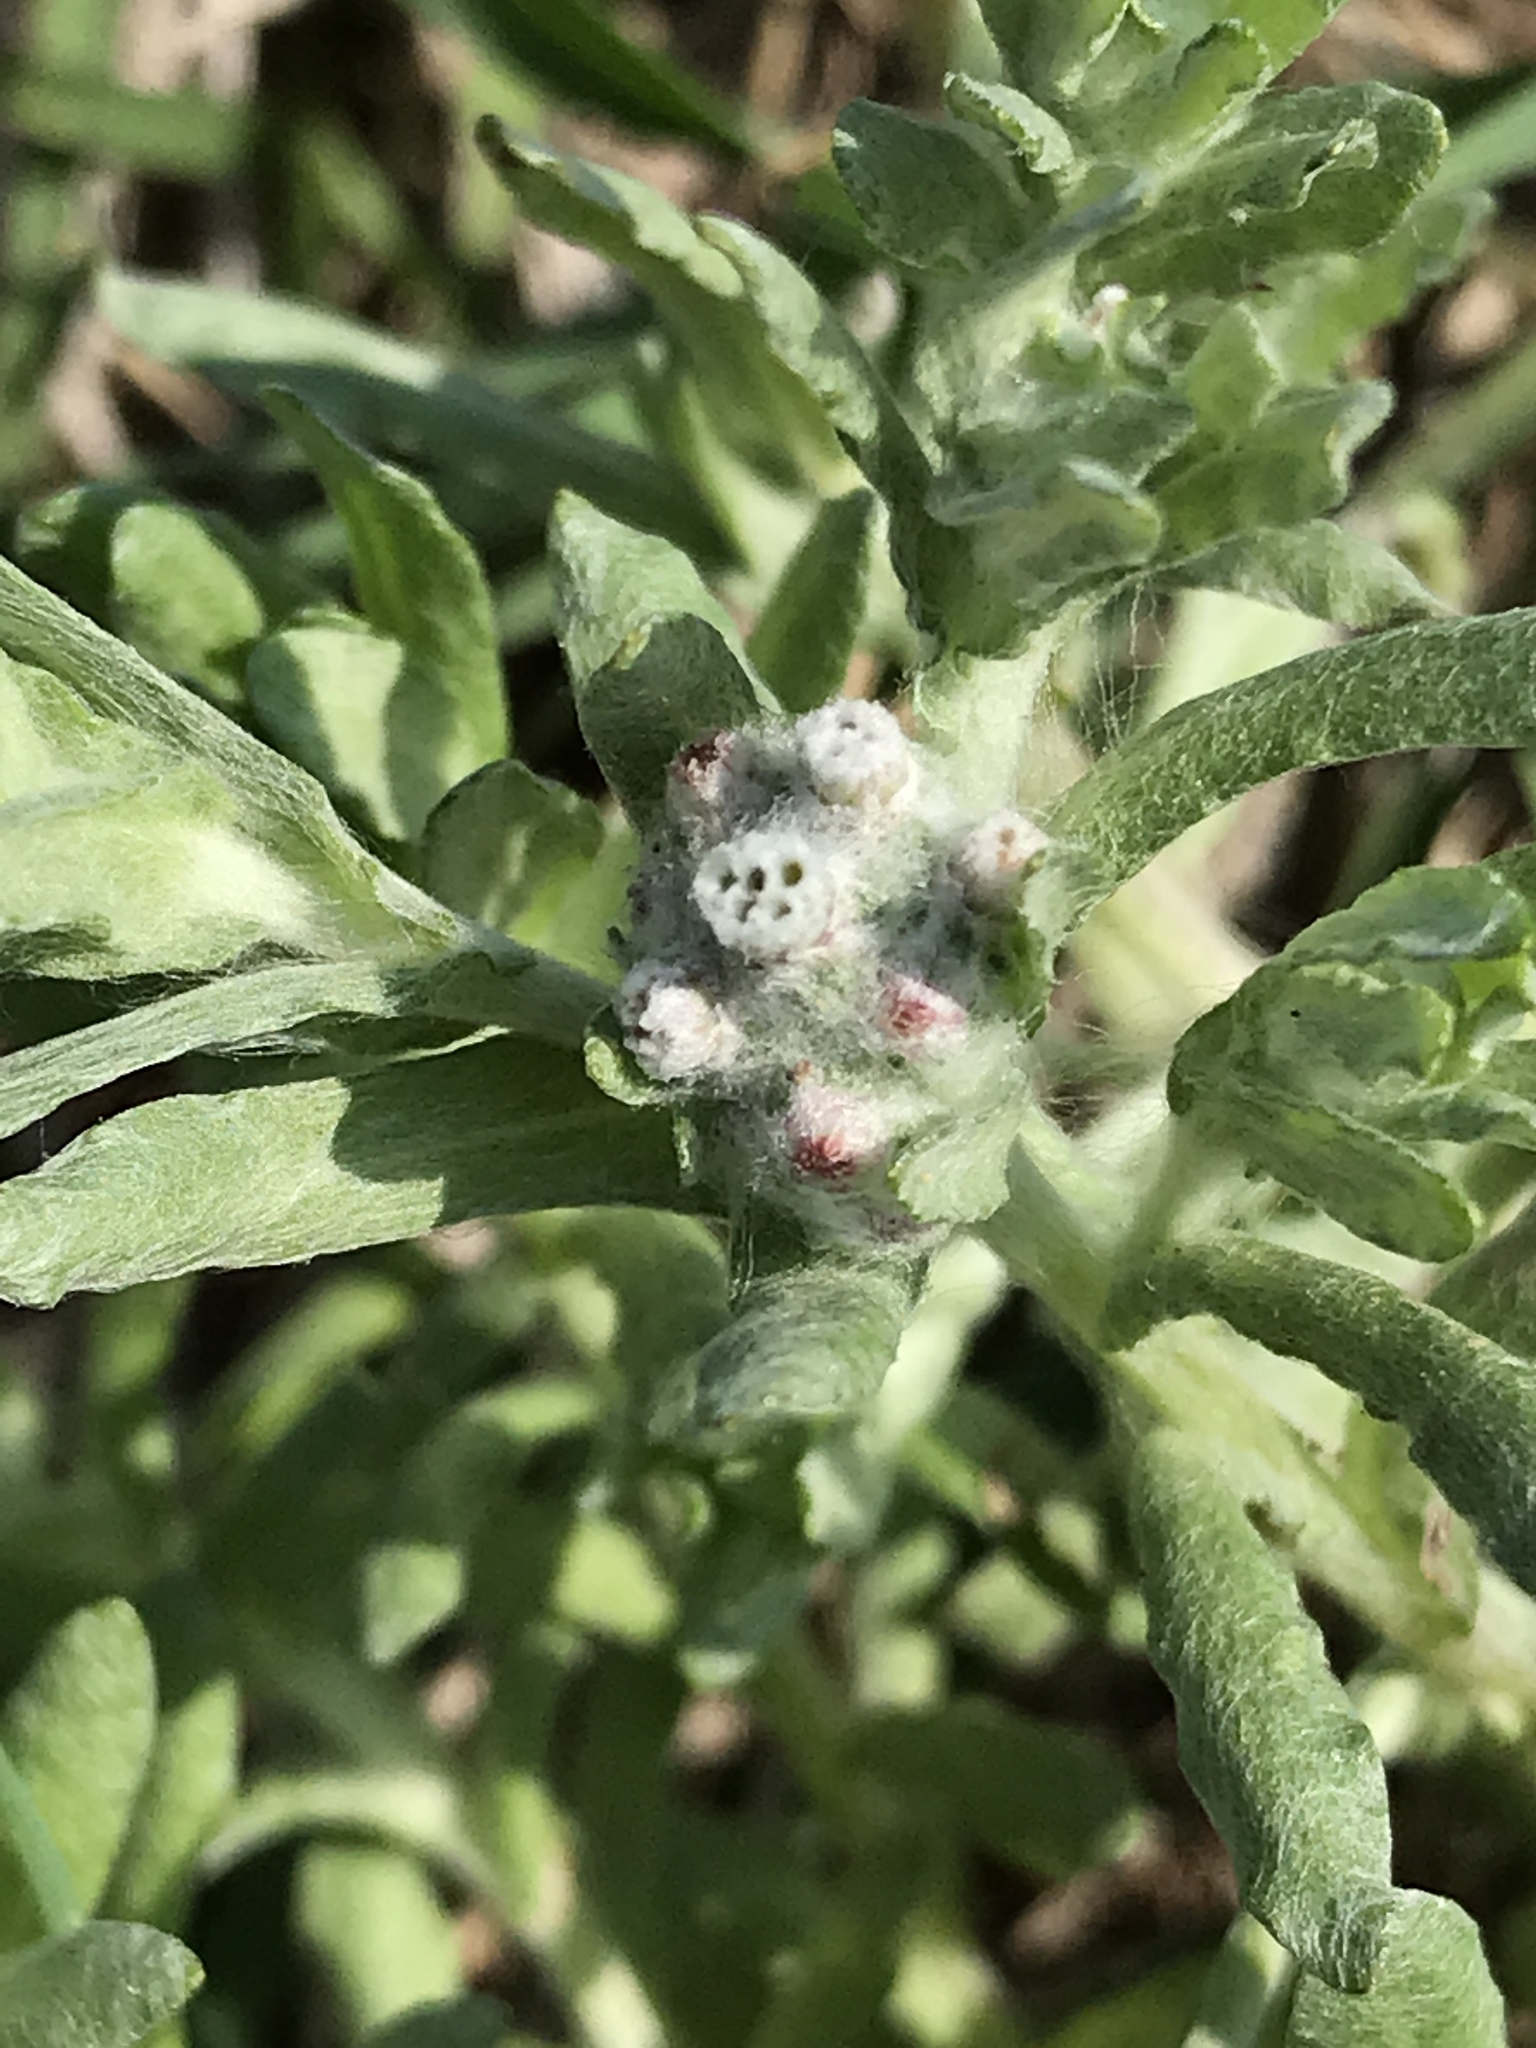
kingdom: Plantae
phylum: Tracheophyta
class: Magnoliopsida
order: Asterales
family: Asteraceae
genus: Diaperia
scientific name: Diaperia verna
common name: Many-stem rabbit-tobacco
